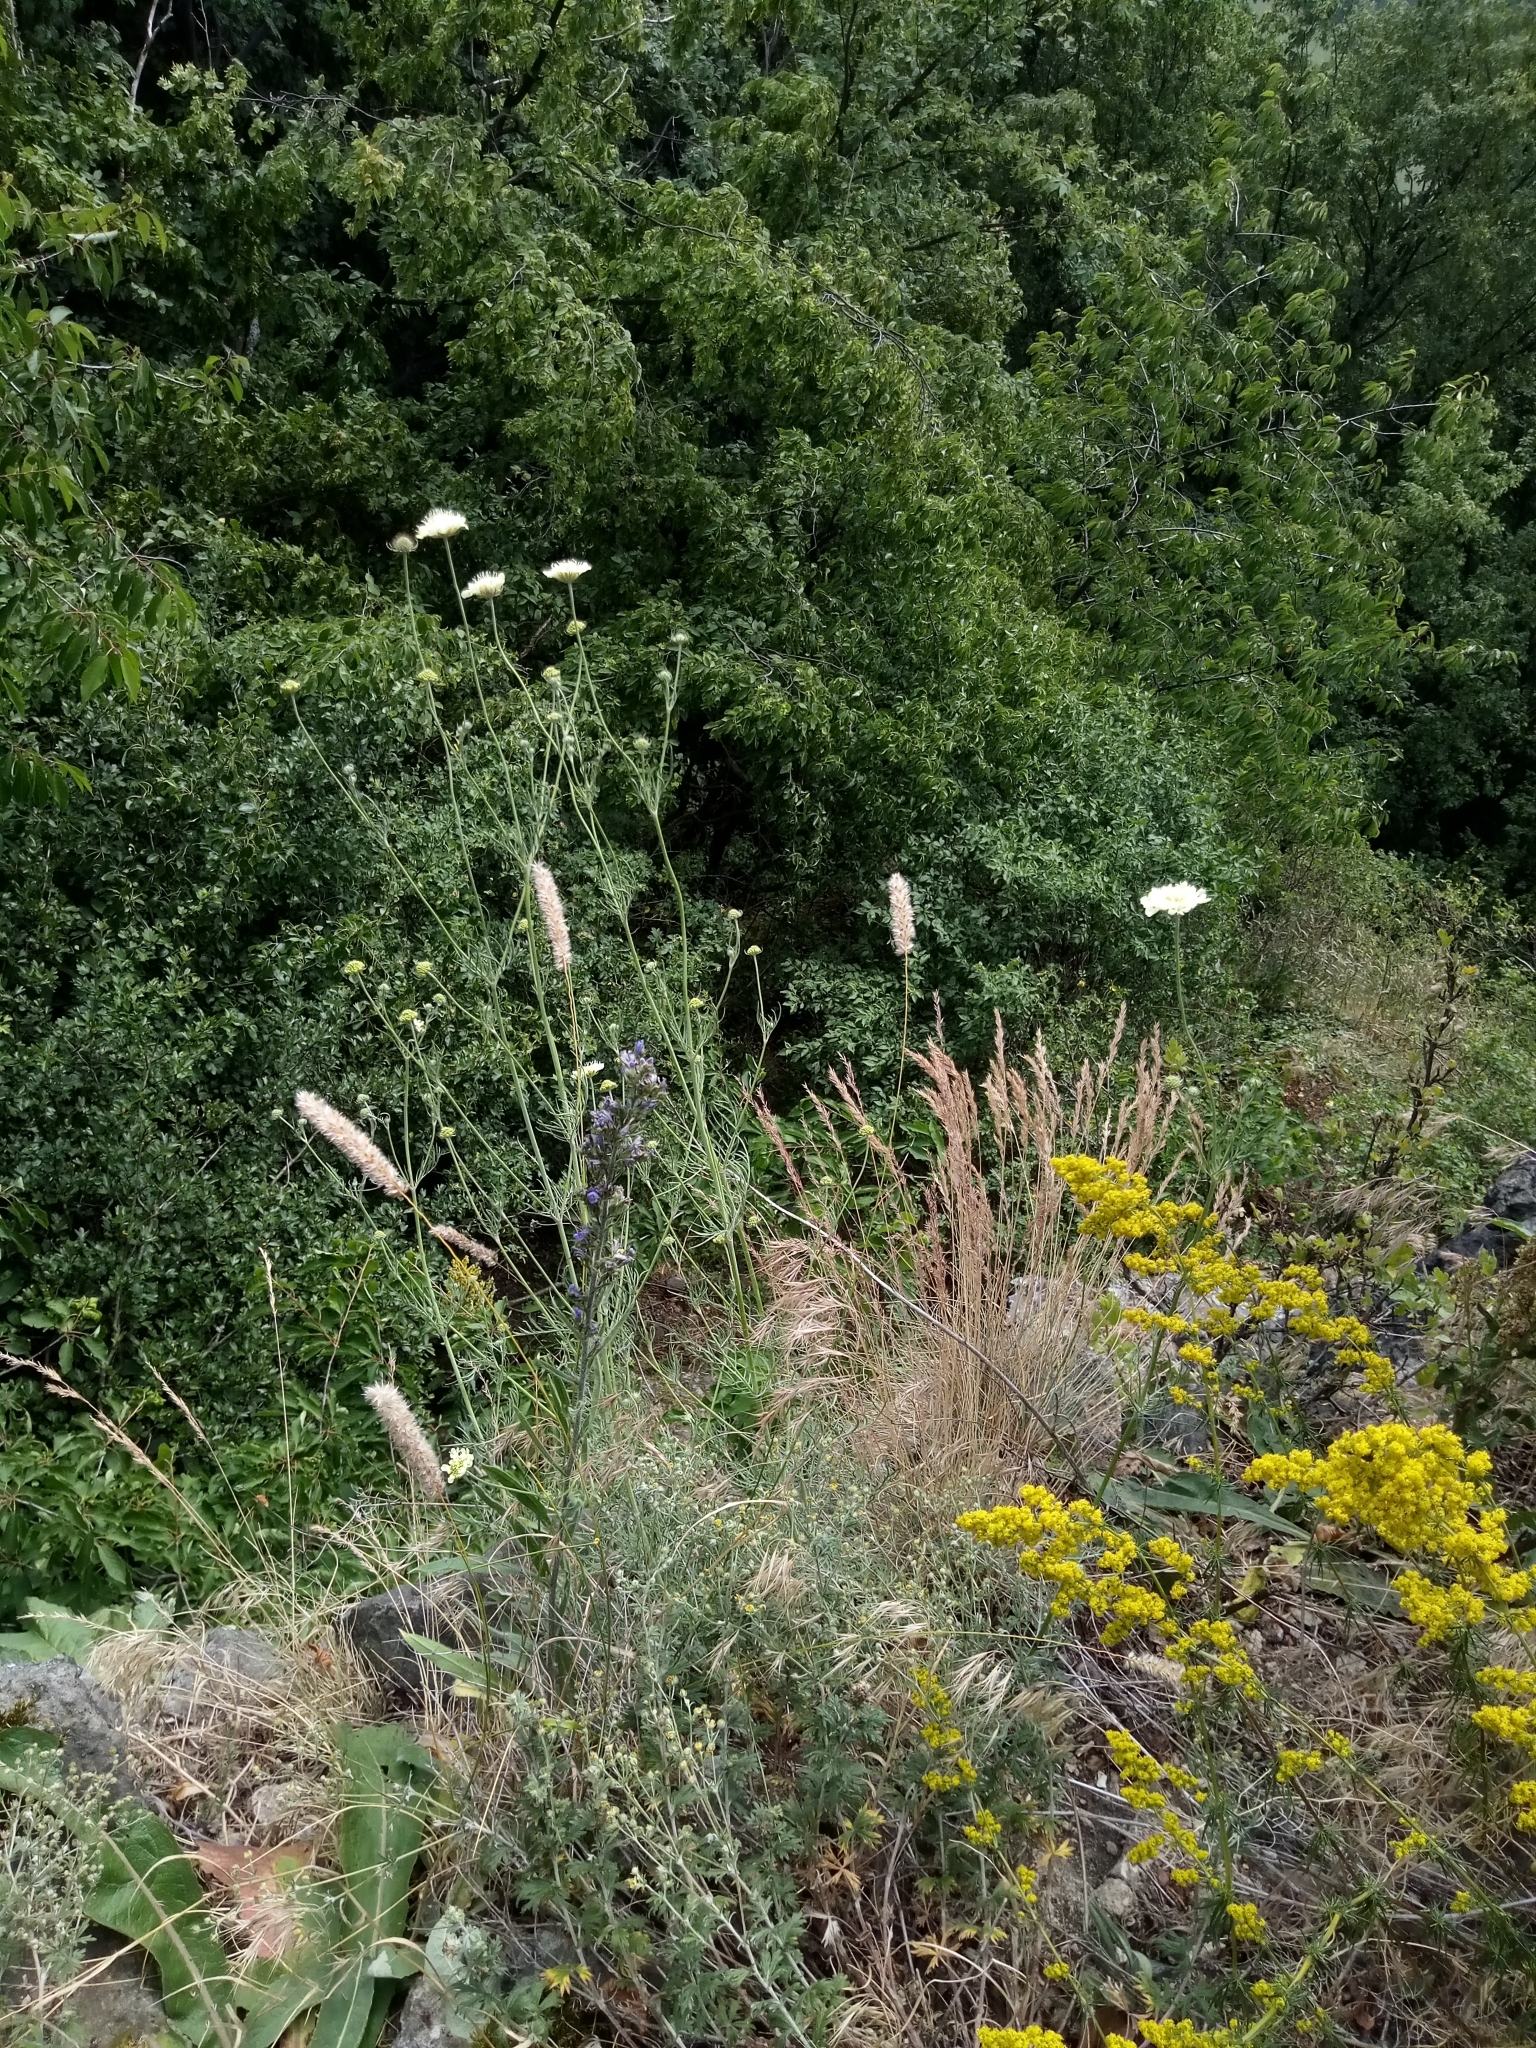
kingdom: Plantae
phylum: Tracheophyta
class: Magnoliopsida
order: Dipsacales
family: Caprifoliaceae
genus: Scabiosa
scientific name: Scabiosa ochroleuca
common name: Cream pincushions
